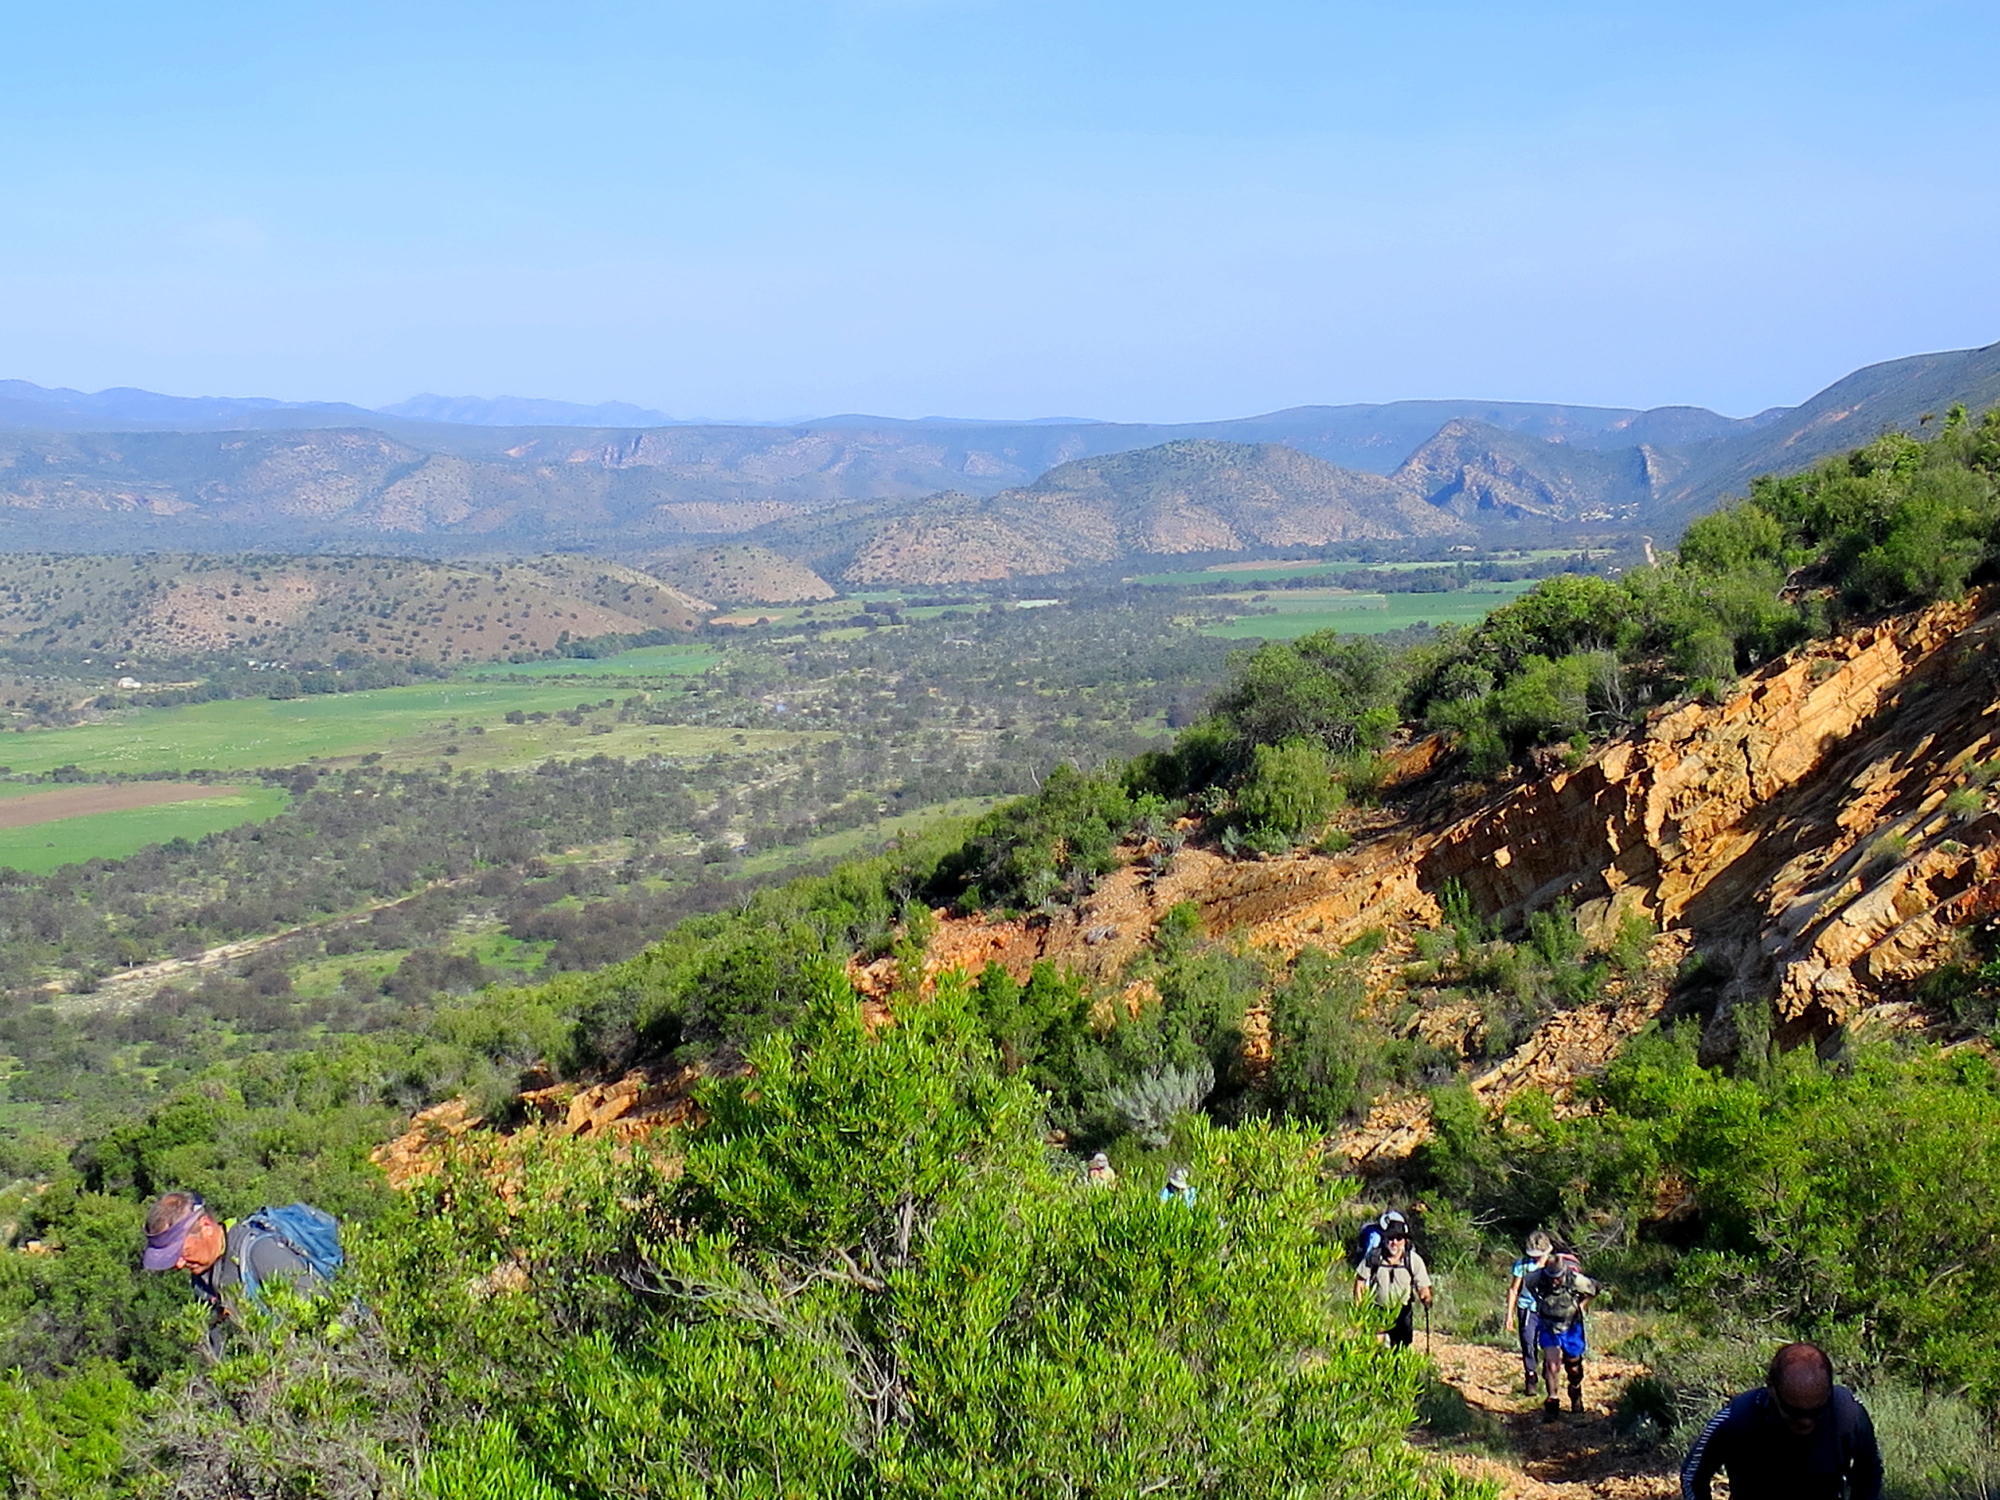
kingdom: Plantae
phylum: Tracheophyta
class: Magnoliopsida
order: Sapindales
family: Sapindaceae
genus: Dodonaea
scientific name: Dodonaea viscosa
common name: Hopbush
